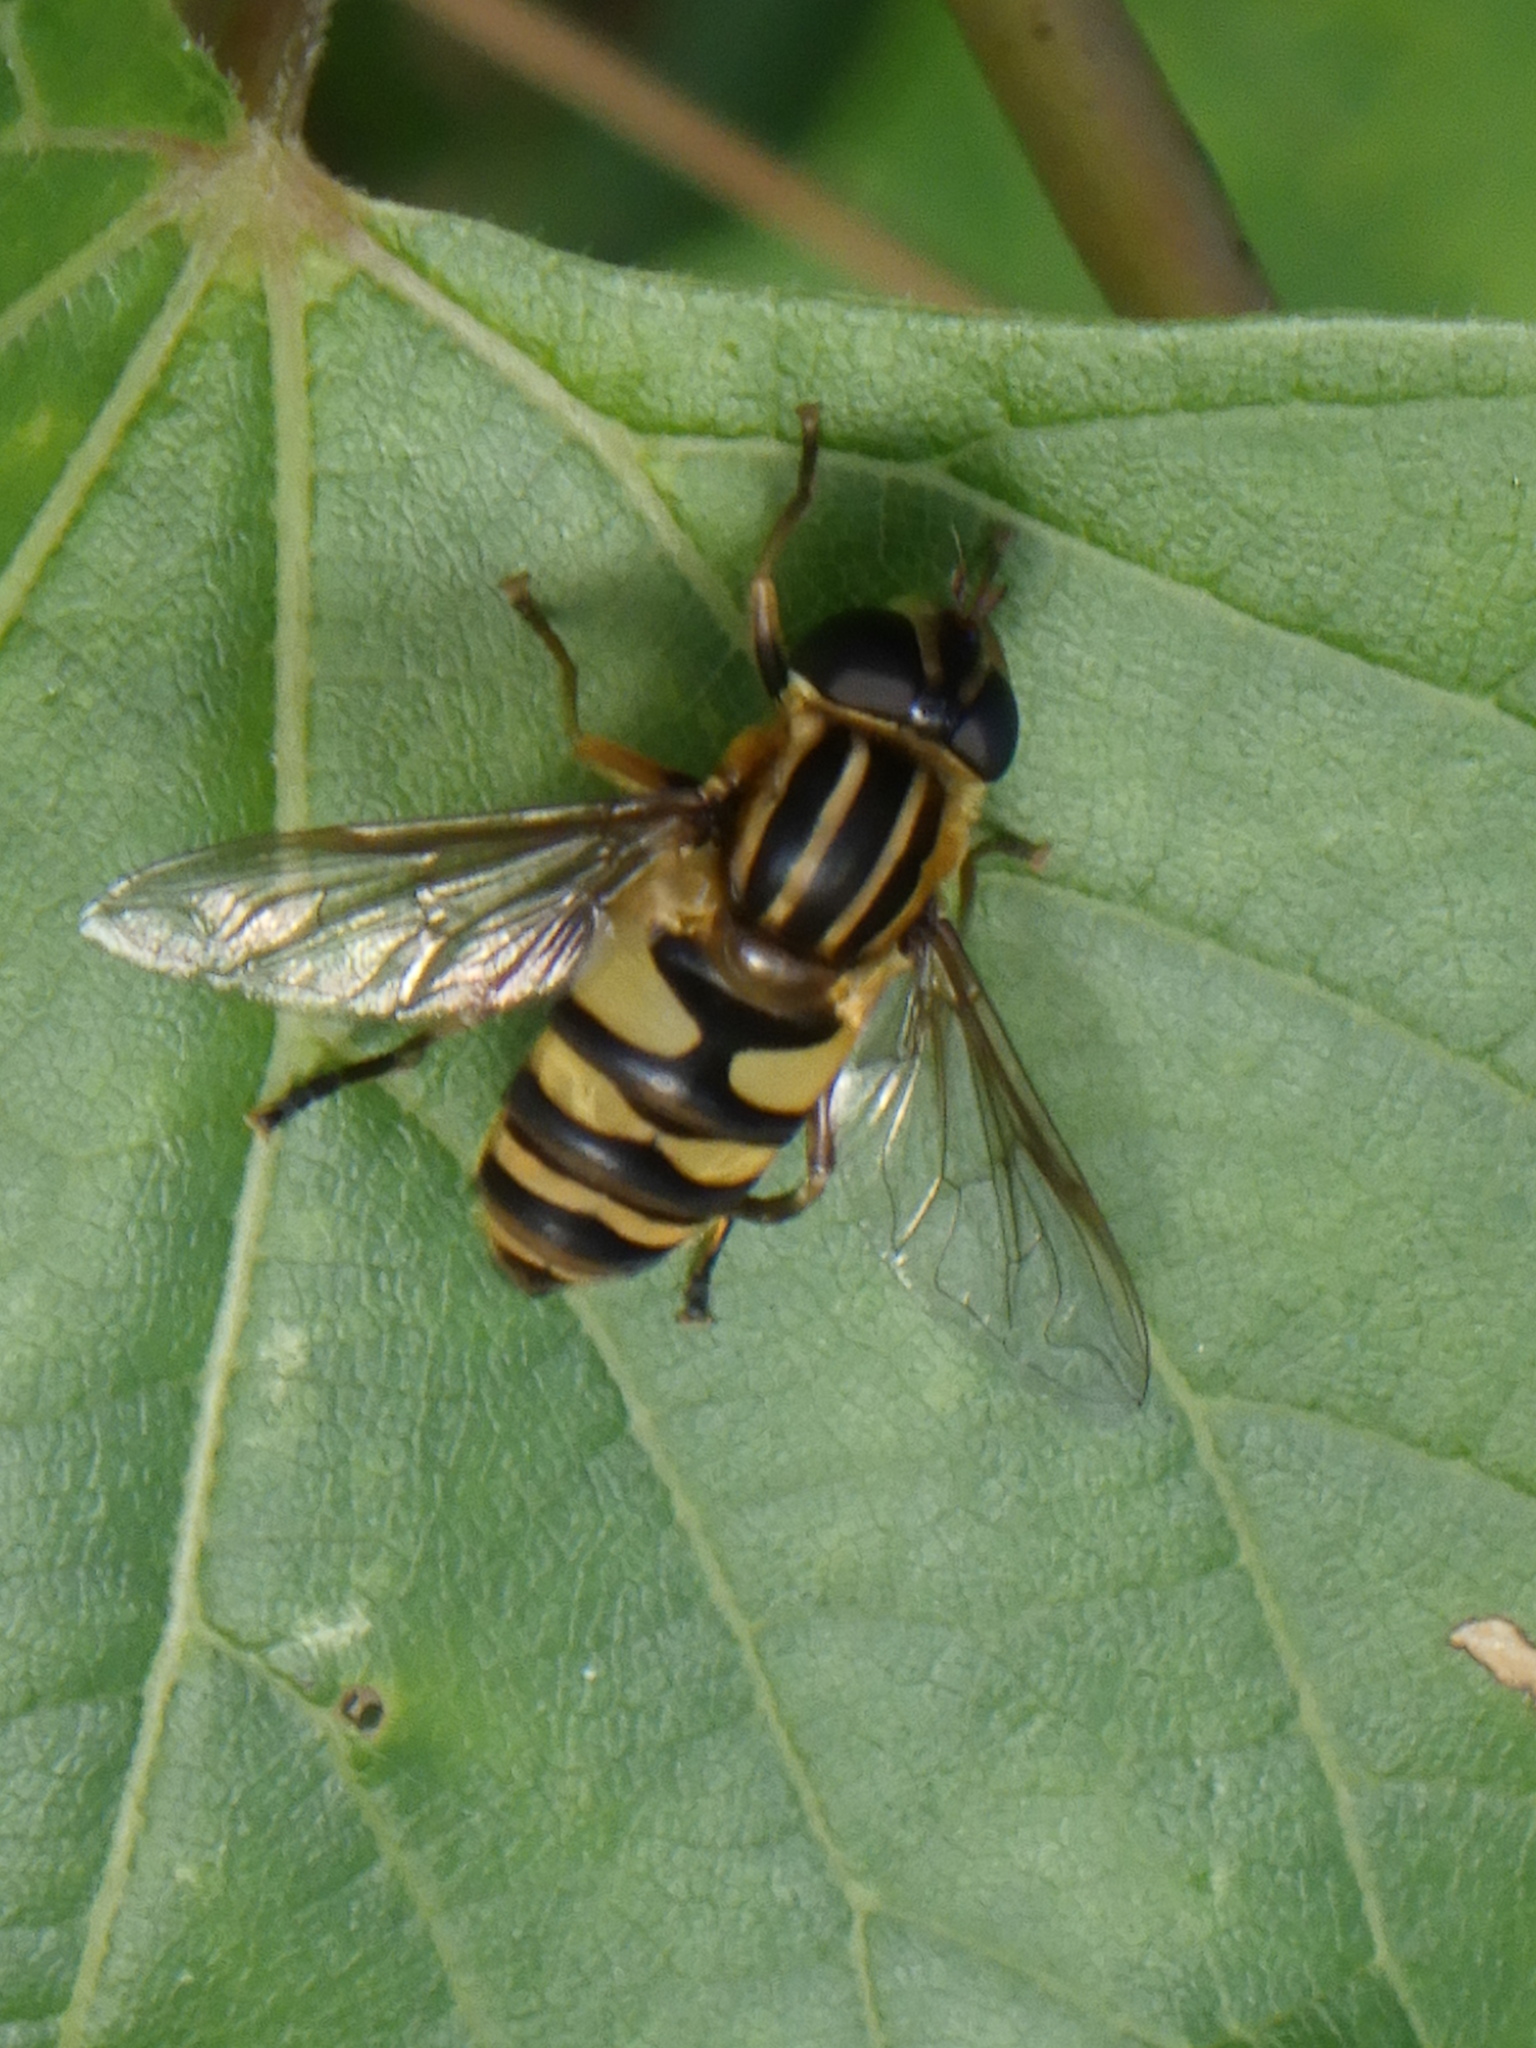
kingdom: Animalia
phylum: Arthropoda
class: Insecta
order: Diptera
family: Syrphidae
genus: Helophilus
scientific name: Helophilus fasciatus
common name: Narrow-headed marsh fly
